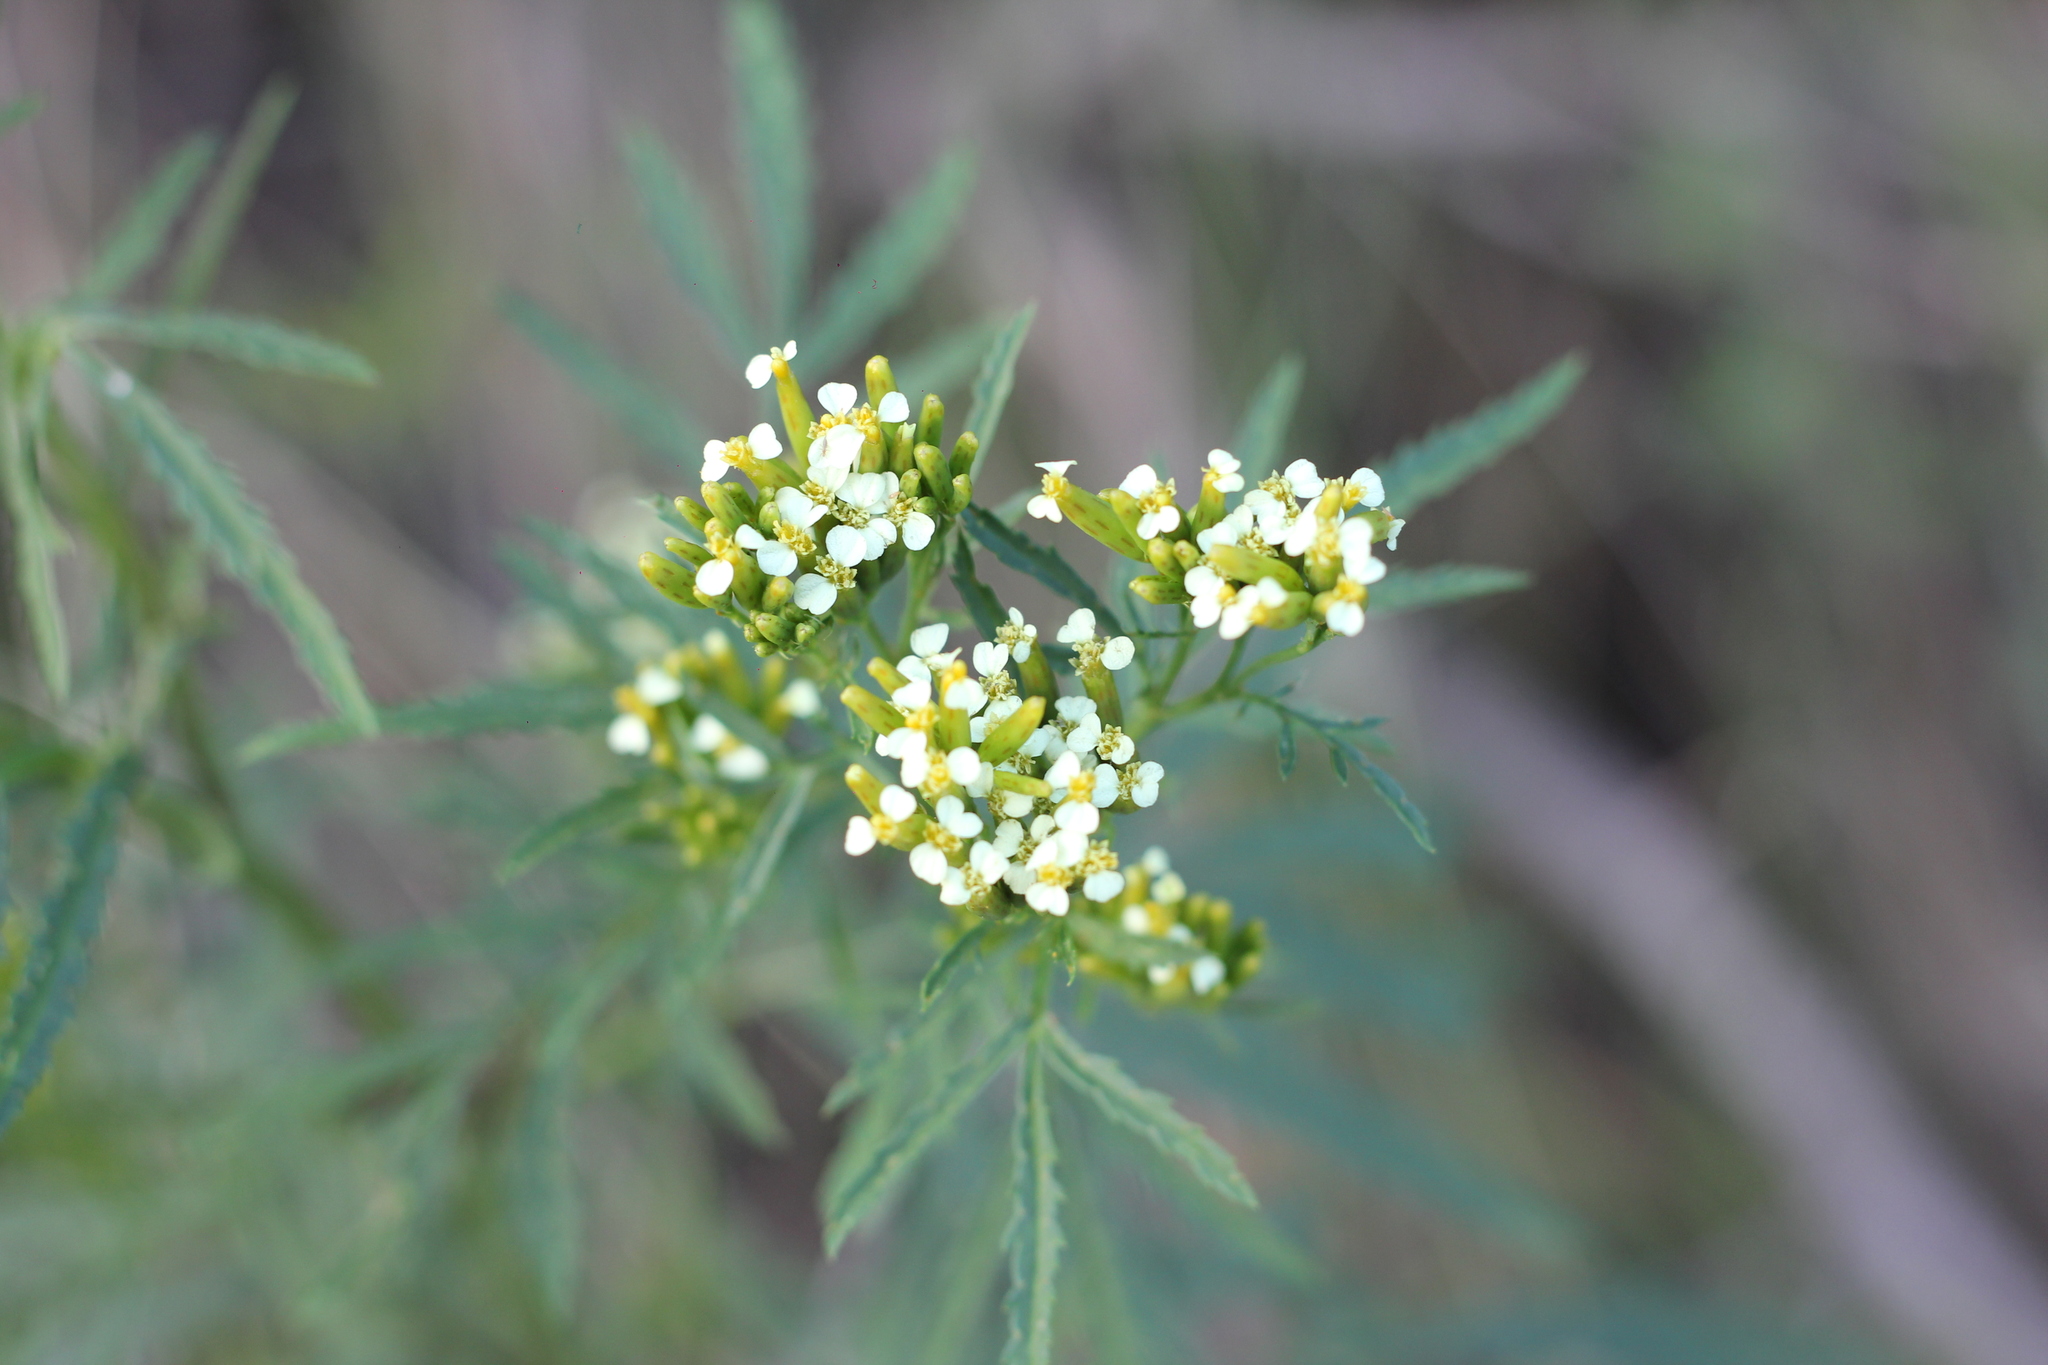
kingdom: Plantae
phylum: Tracheophyta
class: Magnoliopsida
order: Asterales
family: Asteraceae
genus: Tagetes
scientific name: Tagetes minuta
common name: Muster john henry
